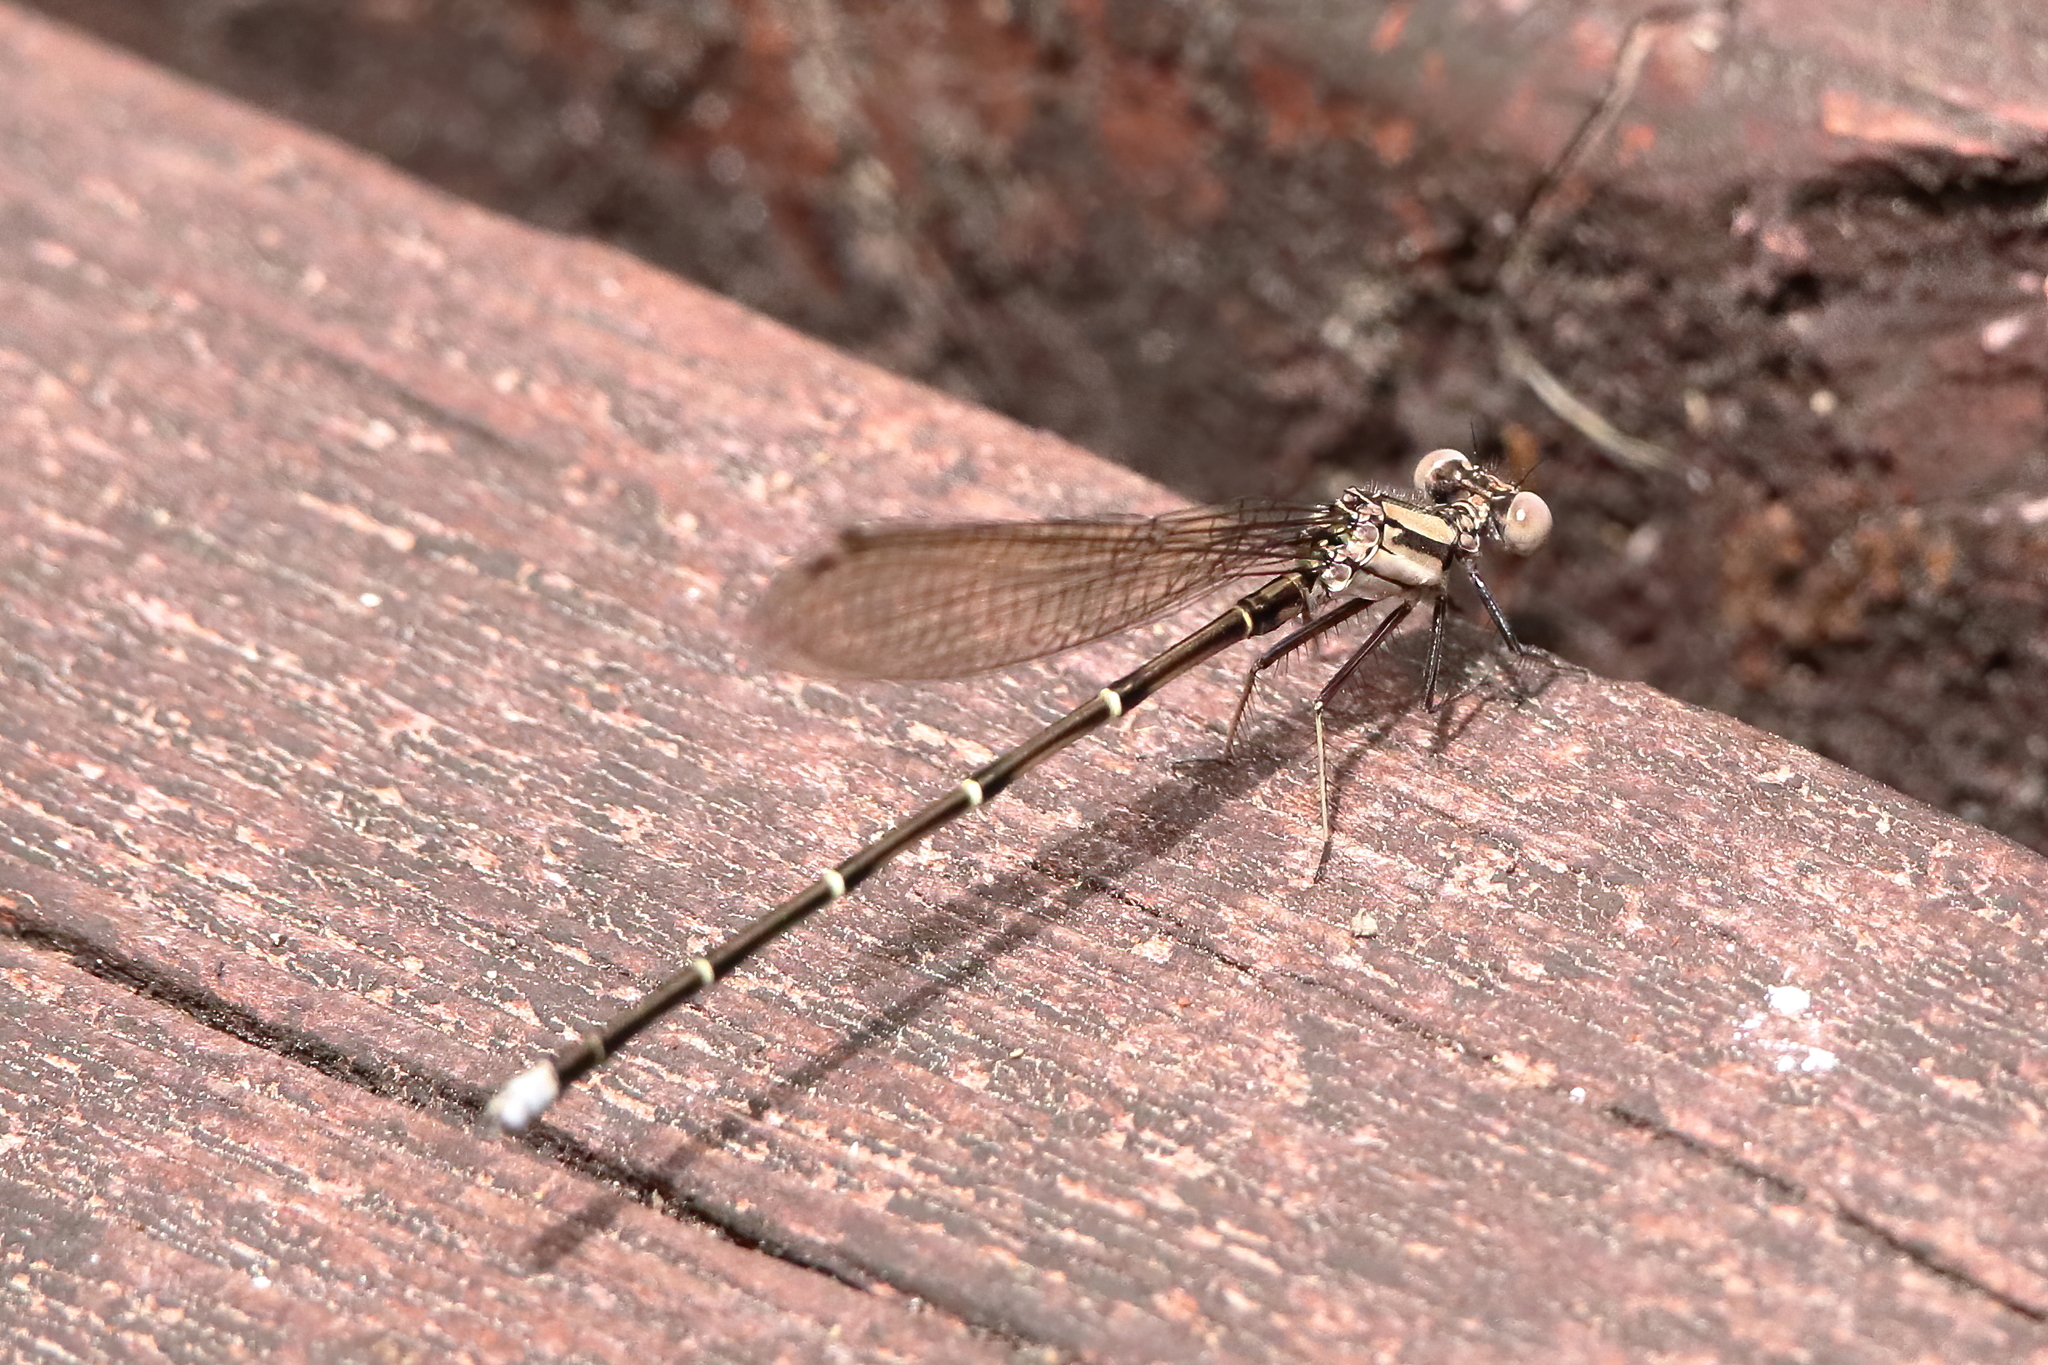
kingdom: Animalia
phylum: Arthropoda
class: Insecta
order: Odonata
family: Coenagrionidae
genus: Argia
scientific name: Argia tibialis
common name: Blue-tipped dancer
